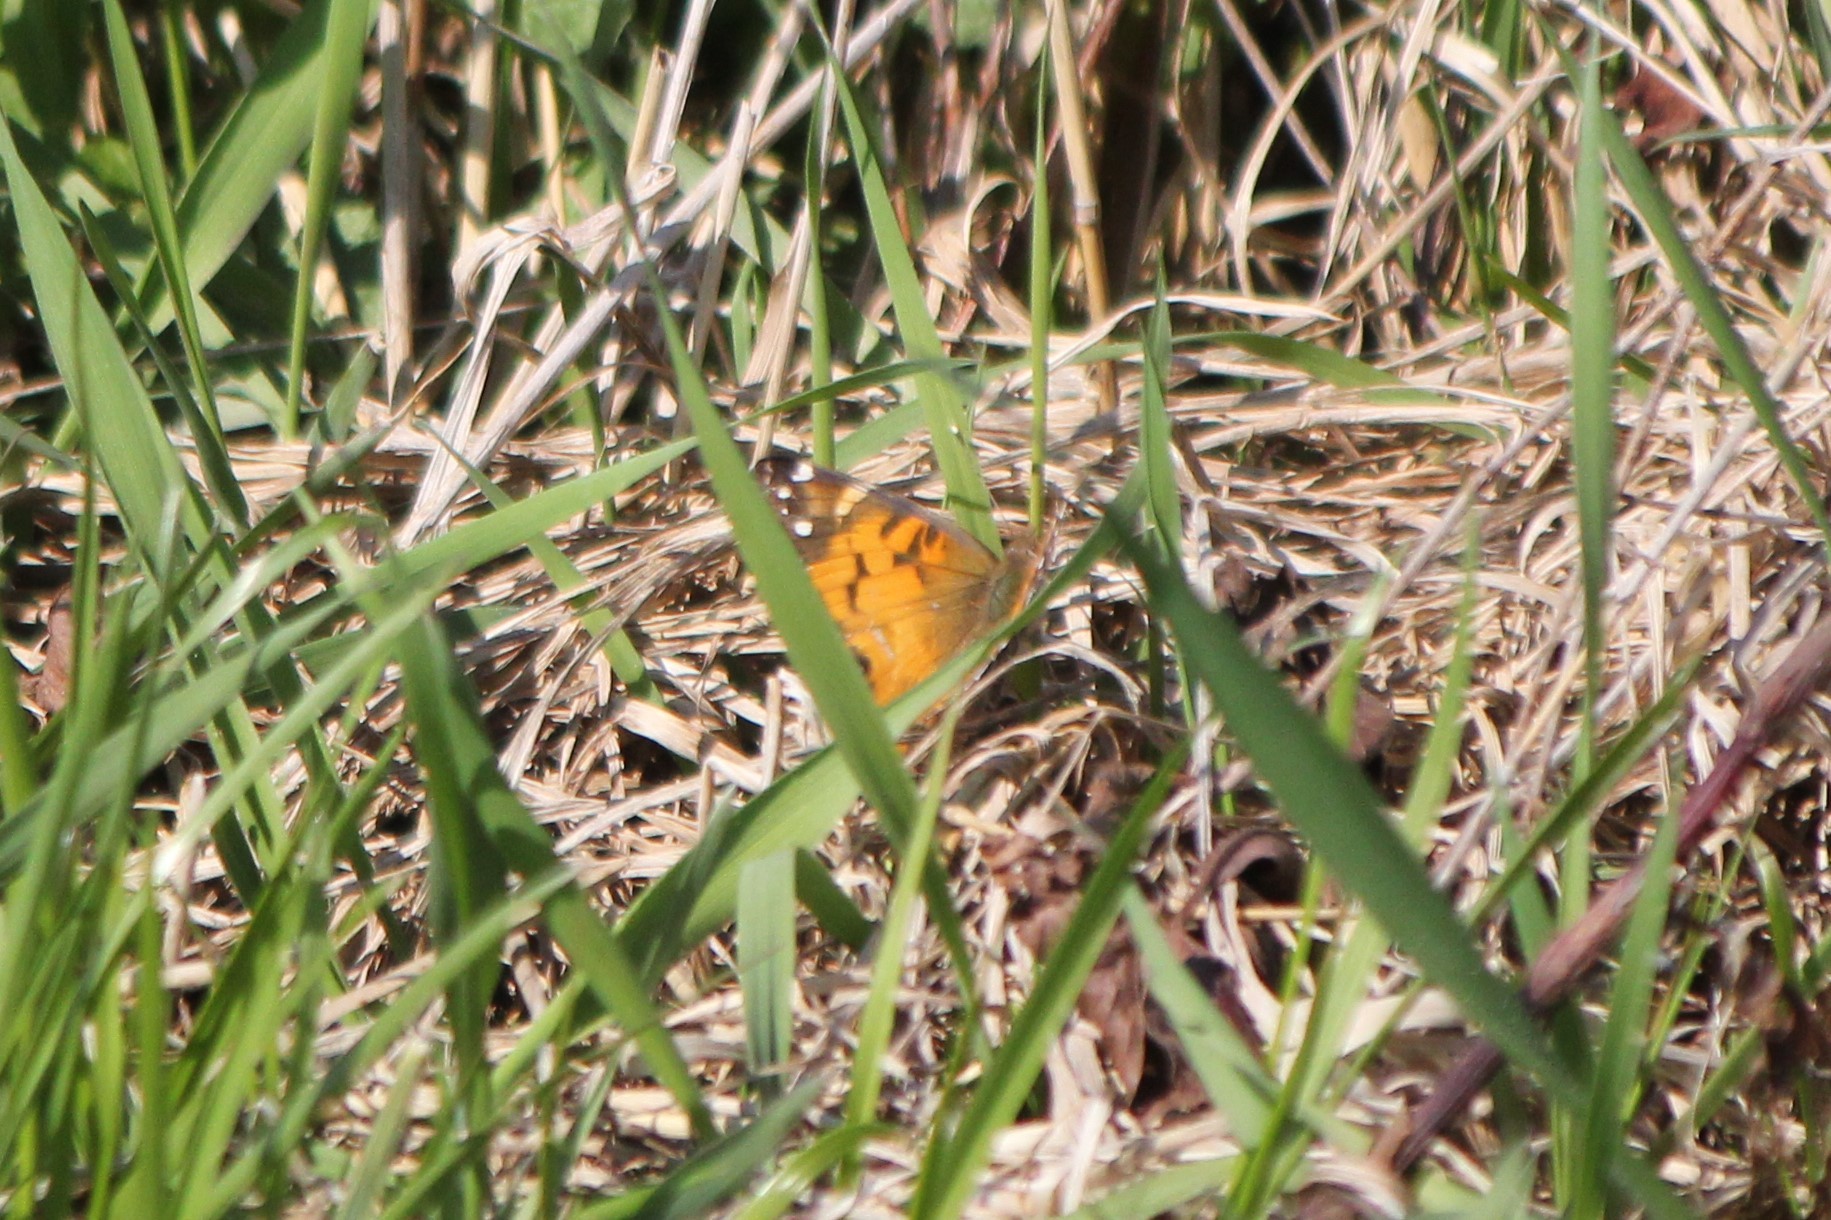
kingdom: Animalia
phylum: Arthropoda
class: Insecta
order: Lepidoptera
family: Nymphalidae
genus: Vanessa
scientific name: Vanessa virginiensis
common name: American lady
